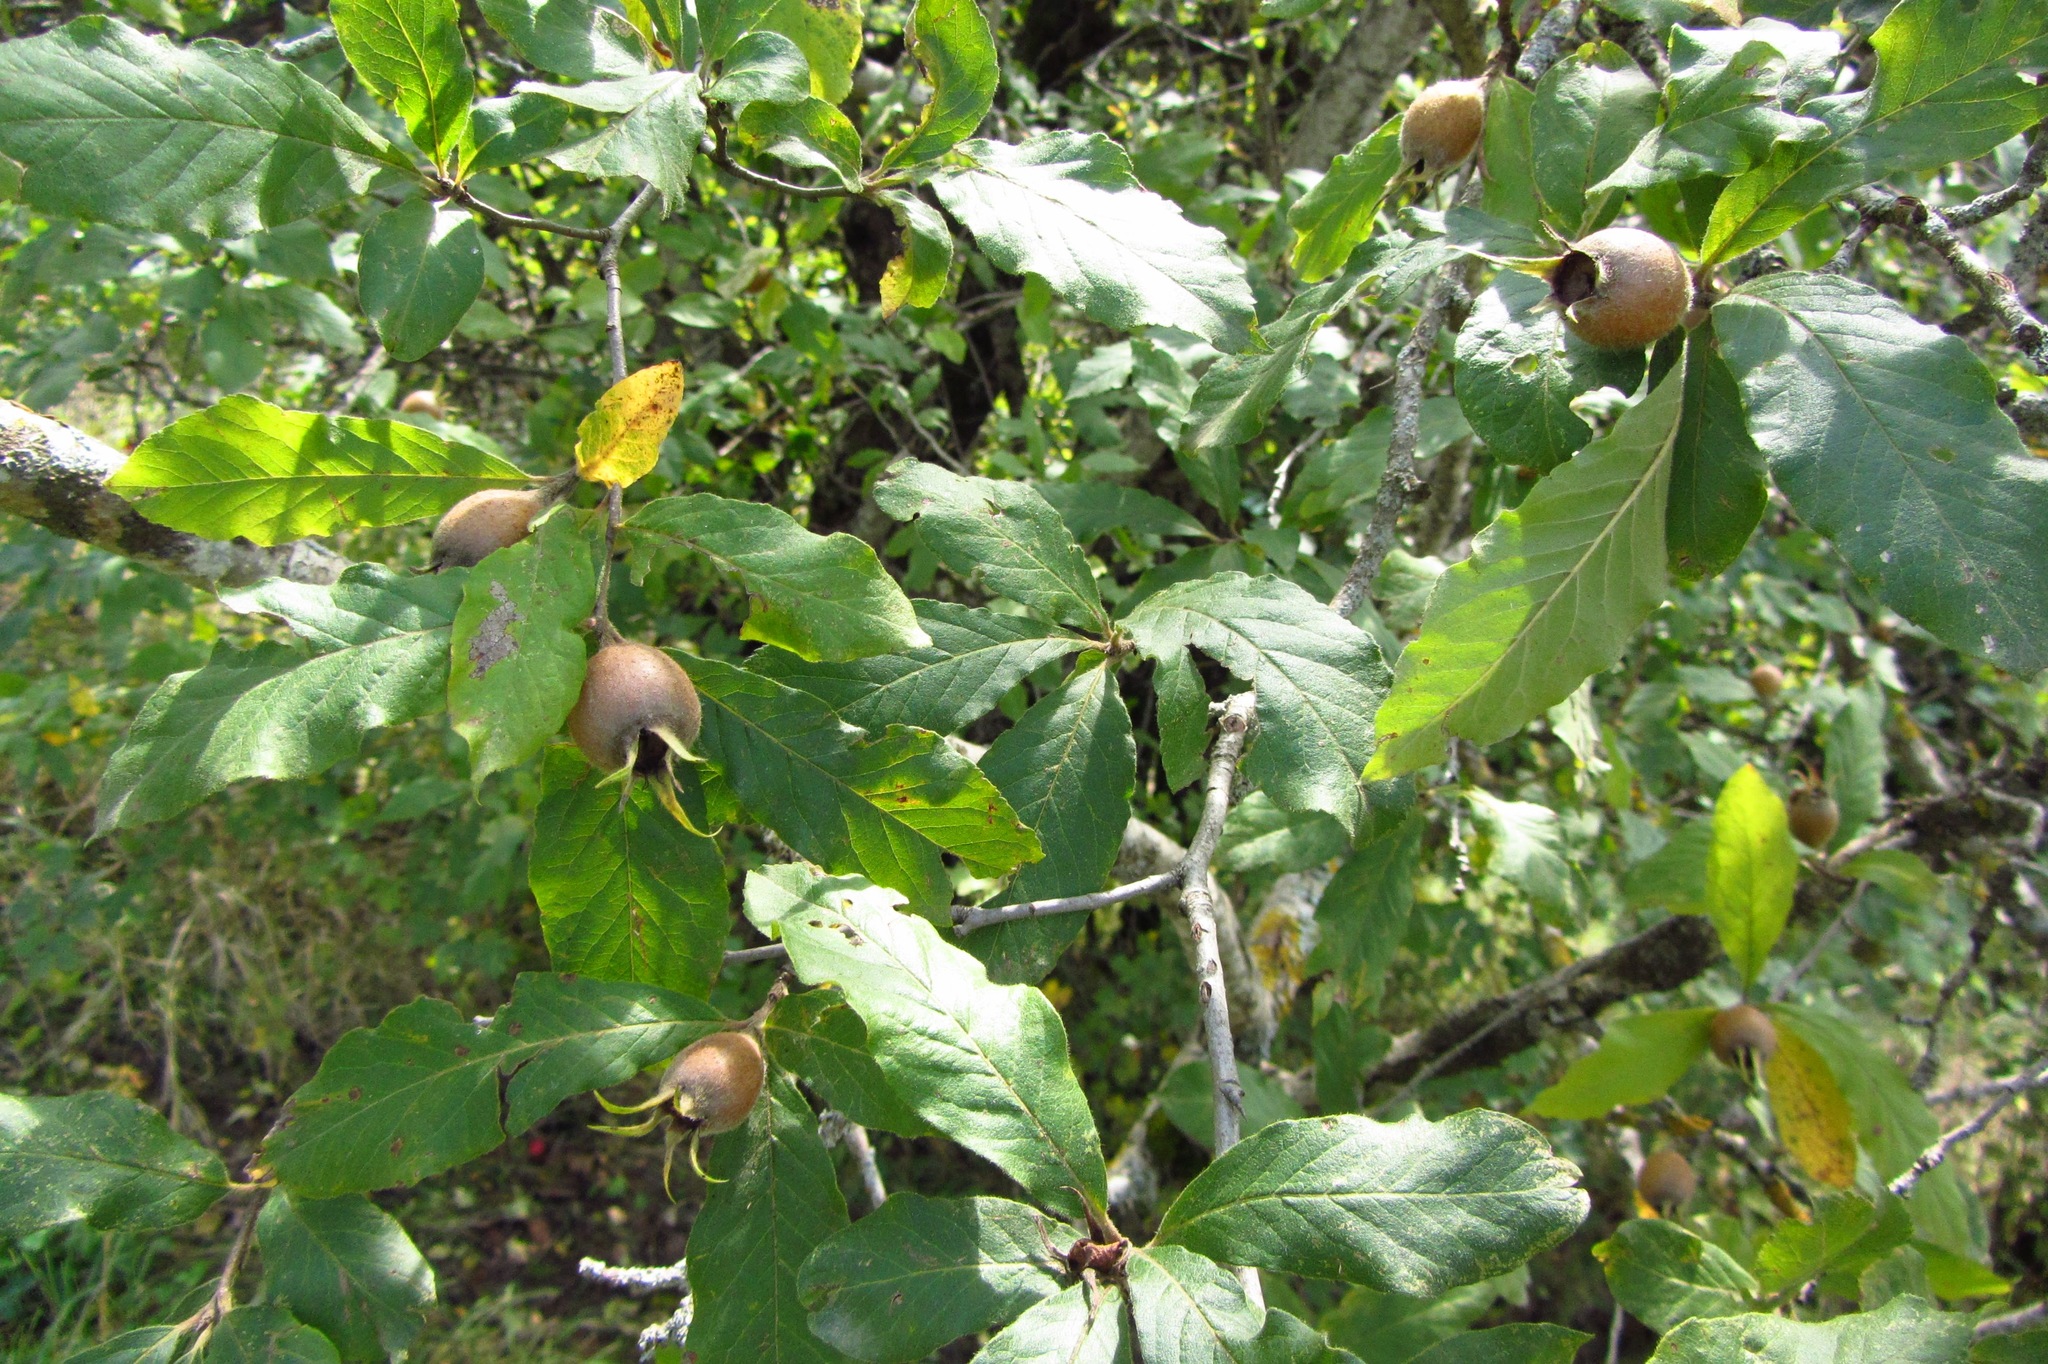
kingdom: Plantae
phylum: Tracheophyta
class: Magnoliopsida
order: Rosales
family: Rosaceae
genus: Mespilus
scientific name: Mespilus germanica
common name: Medlar
